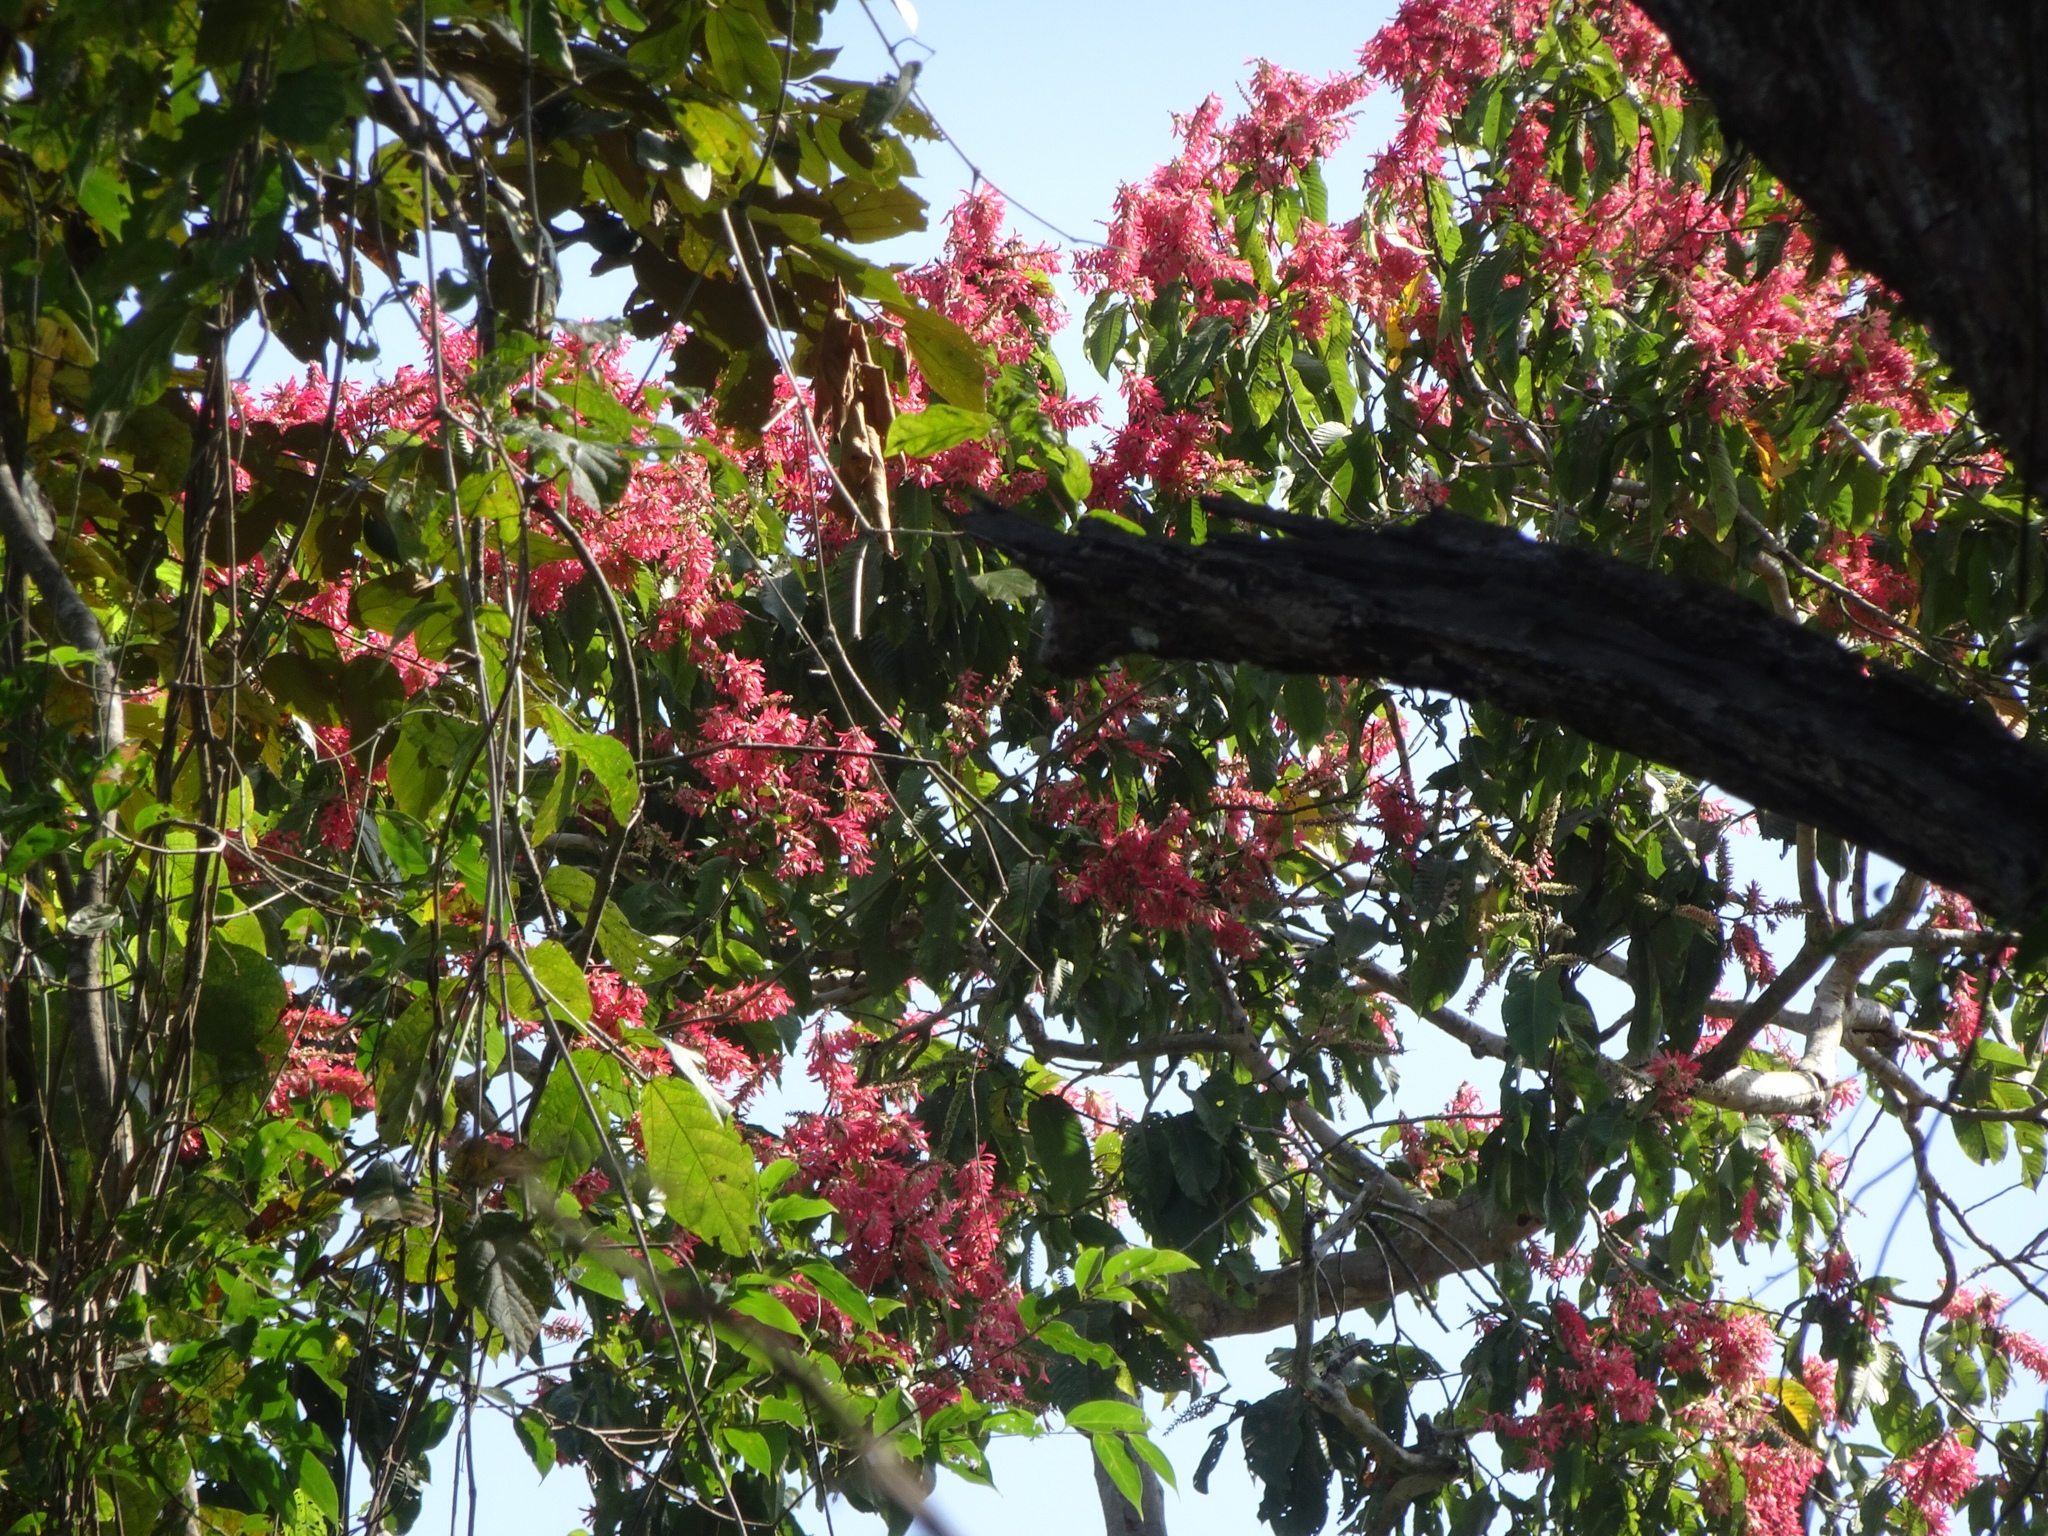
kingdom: Plantae
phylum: Tracheophyta
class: Magnoliopsida
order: Caryophyllales
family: Polygonaceae
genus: Triplaris
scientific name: Triplaris cumingiana
